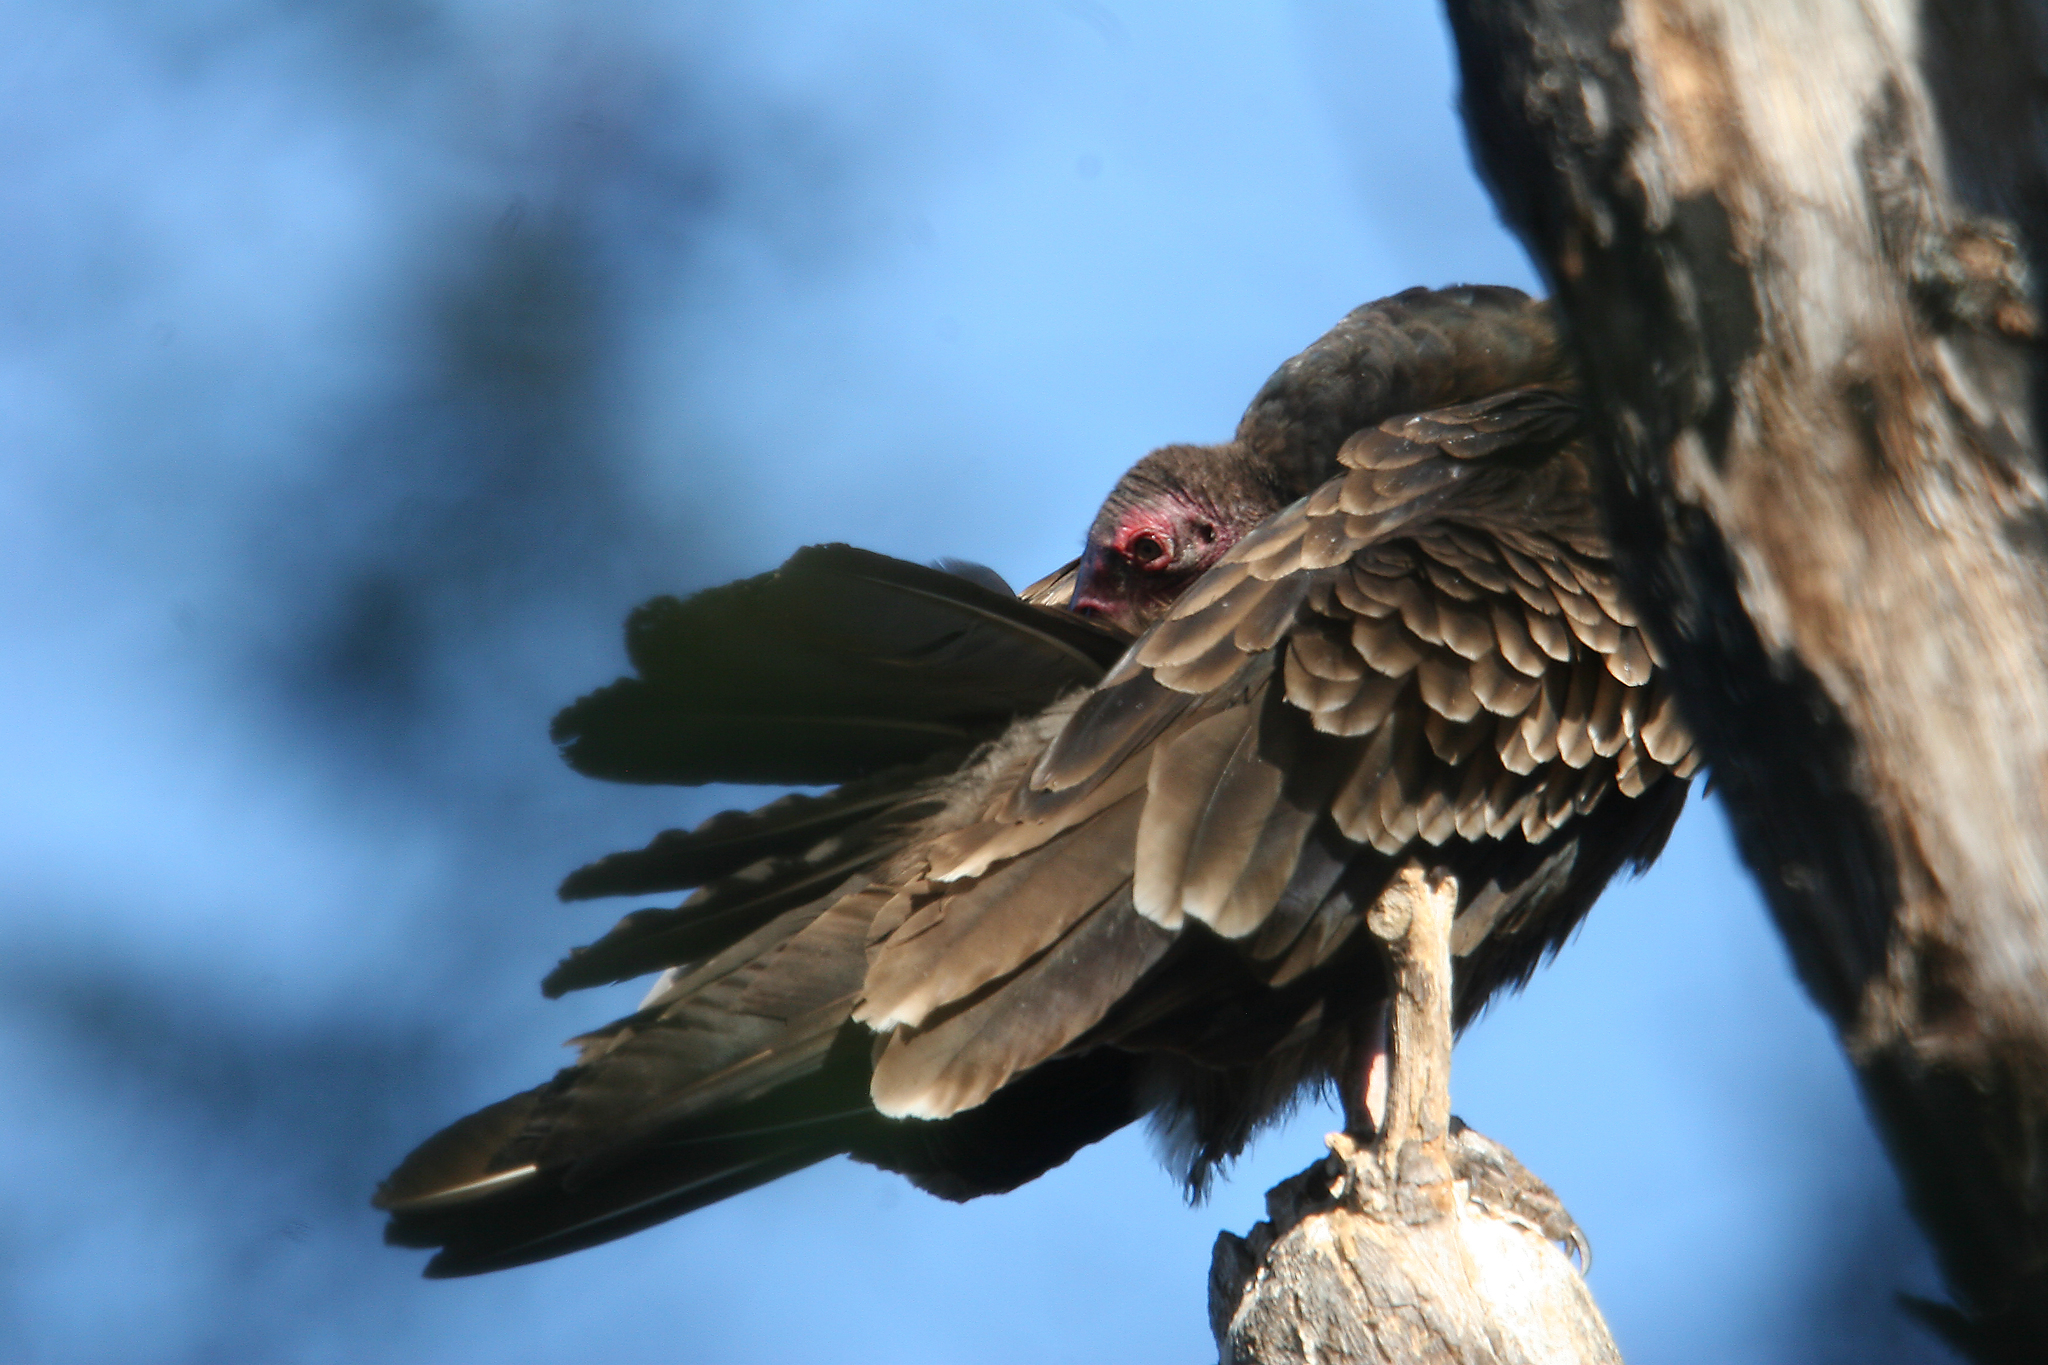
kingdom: Animalia
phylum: Chordata
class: Aves
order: Accipitriformes
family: Cathartidae
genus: Cathartes
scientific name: Cathartes aura
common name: Turkey vulture
